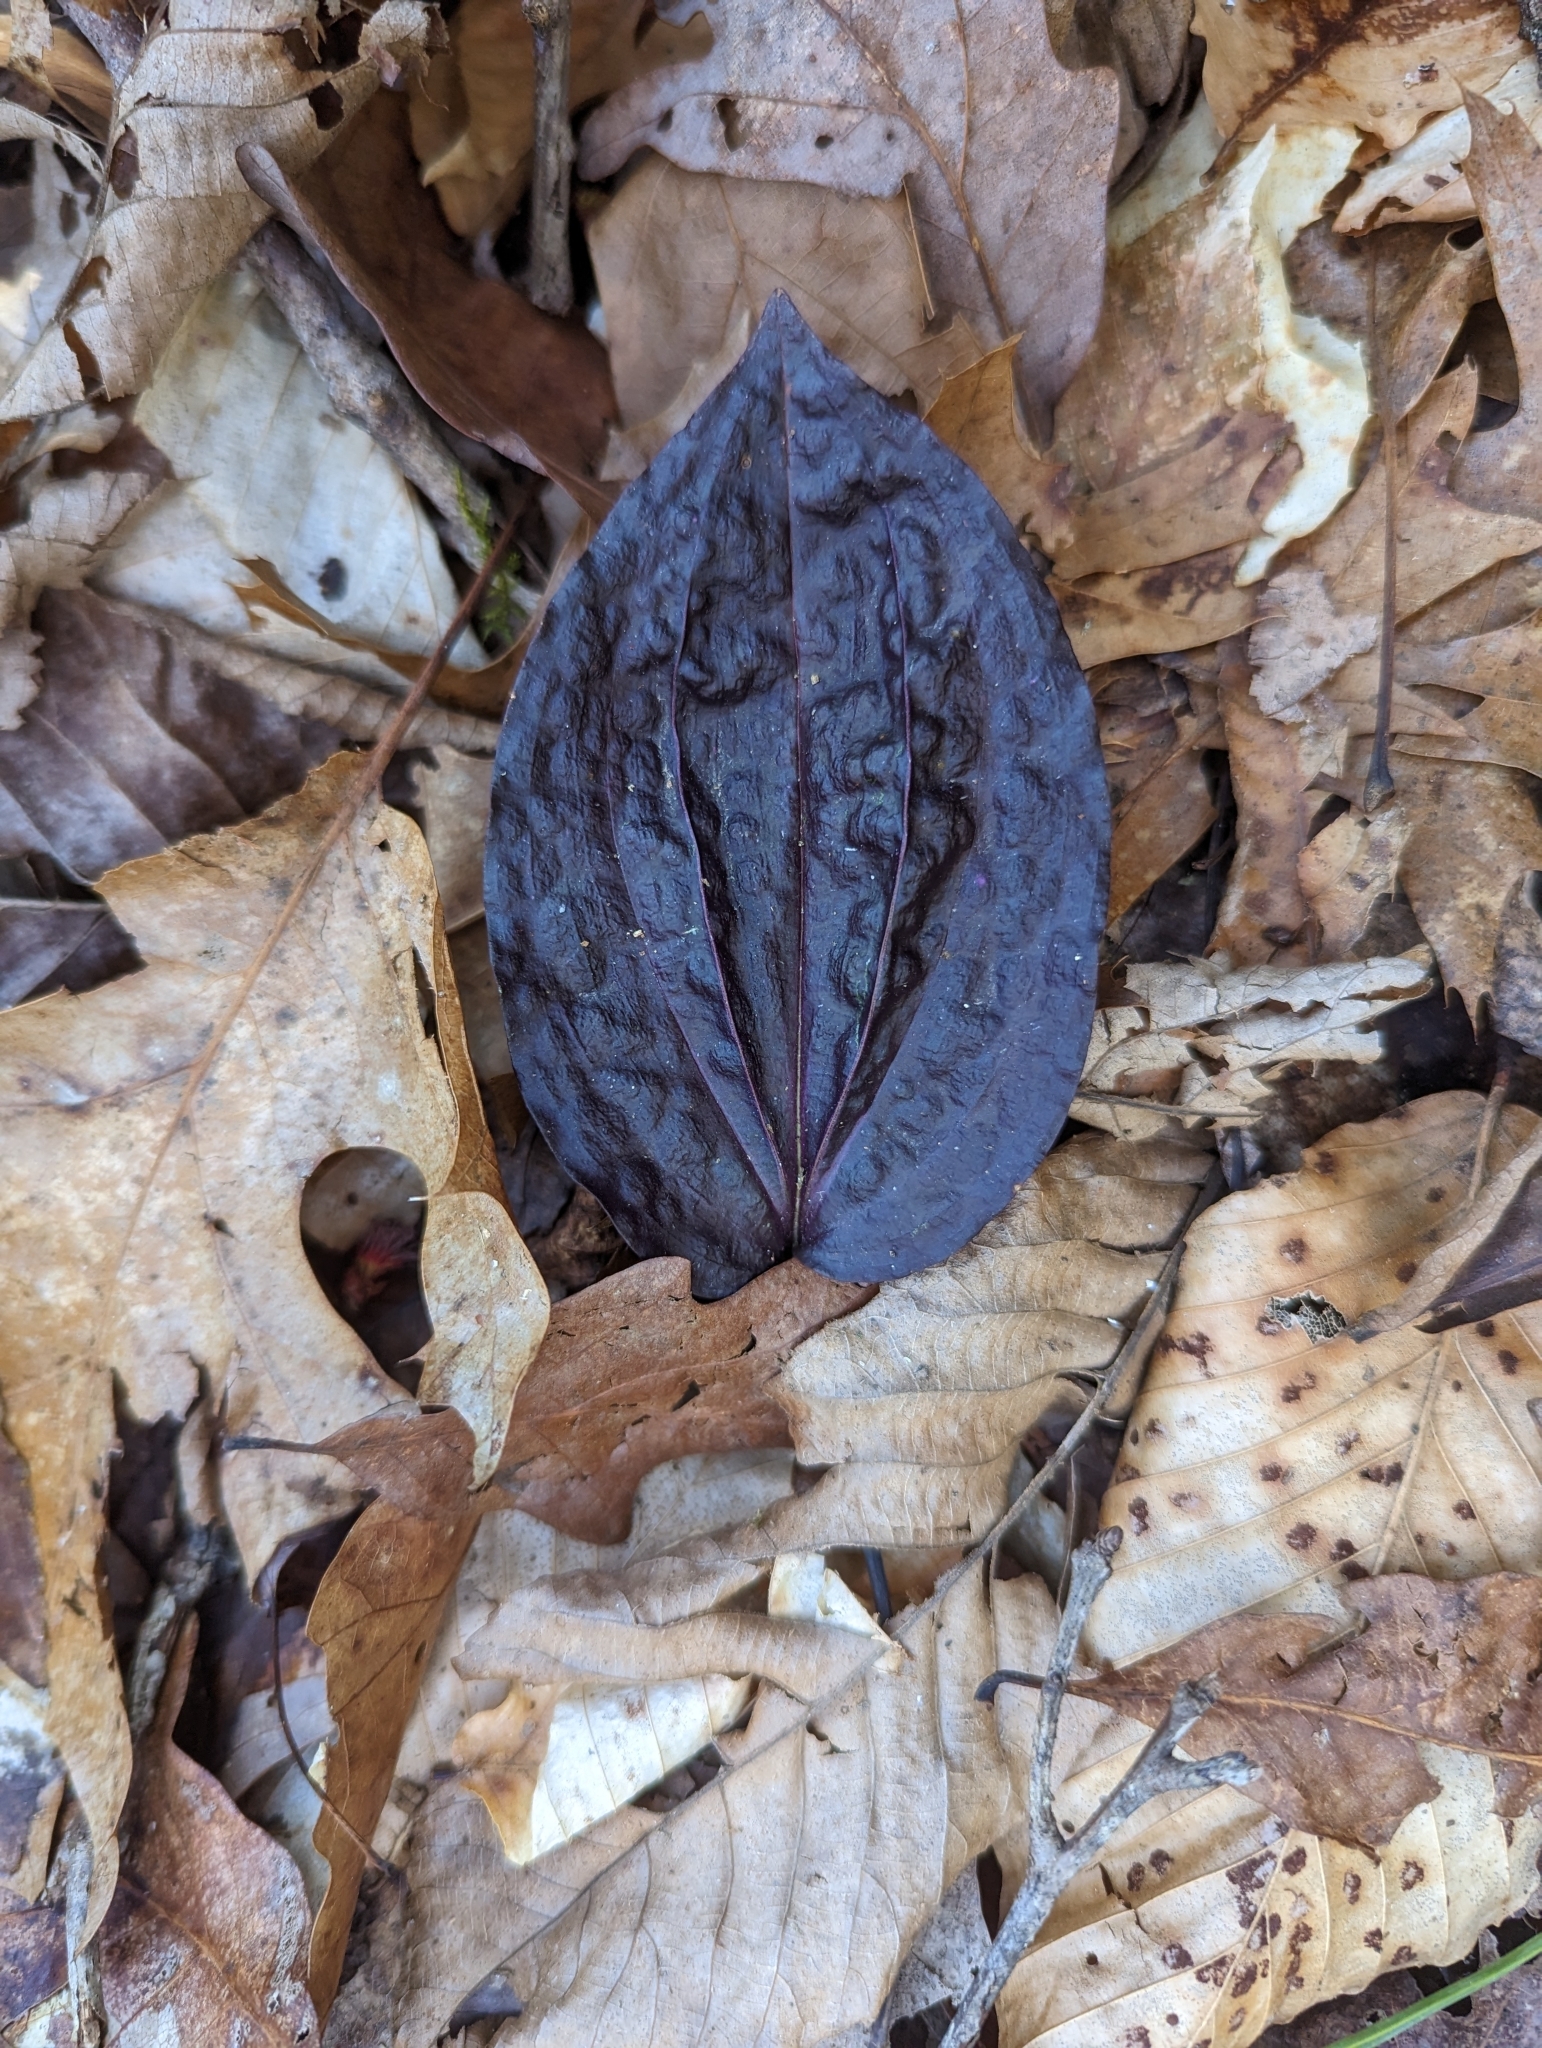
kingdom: Plantae
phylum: Tracheophyta
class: Liliopsida
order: Asparagales
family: Orchidaceae
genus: Tipularia
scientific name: Tipularia discolor
